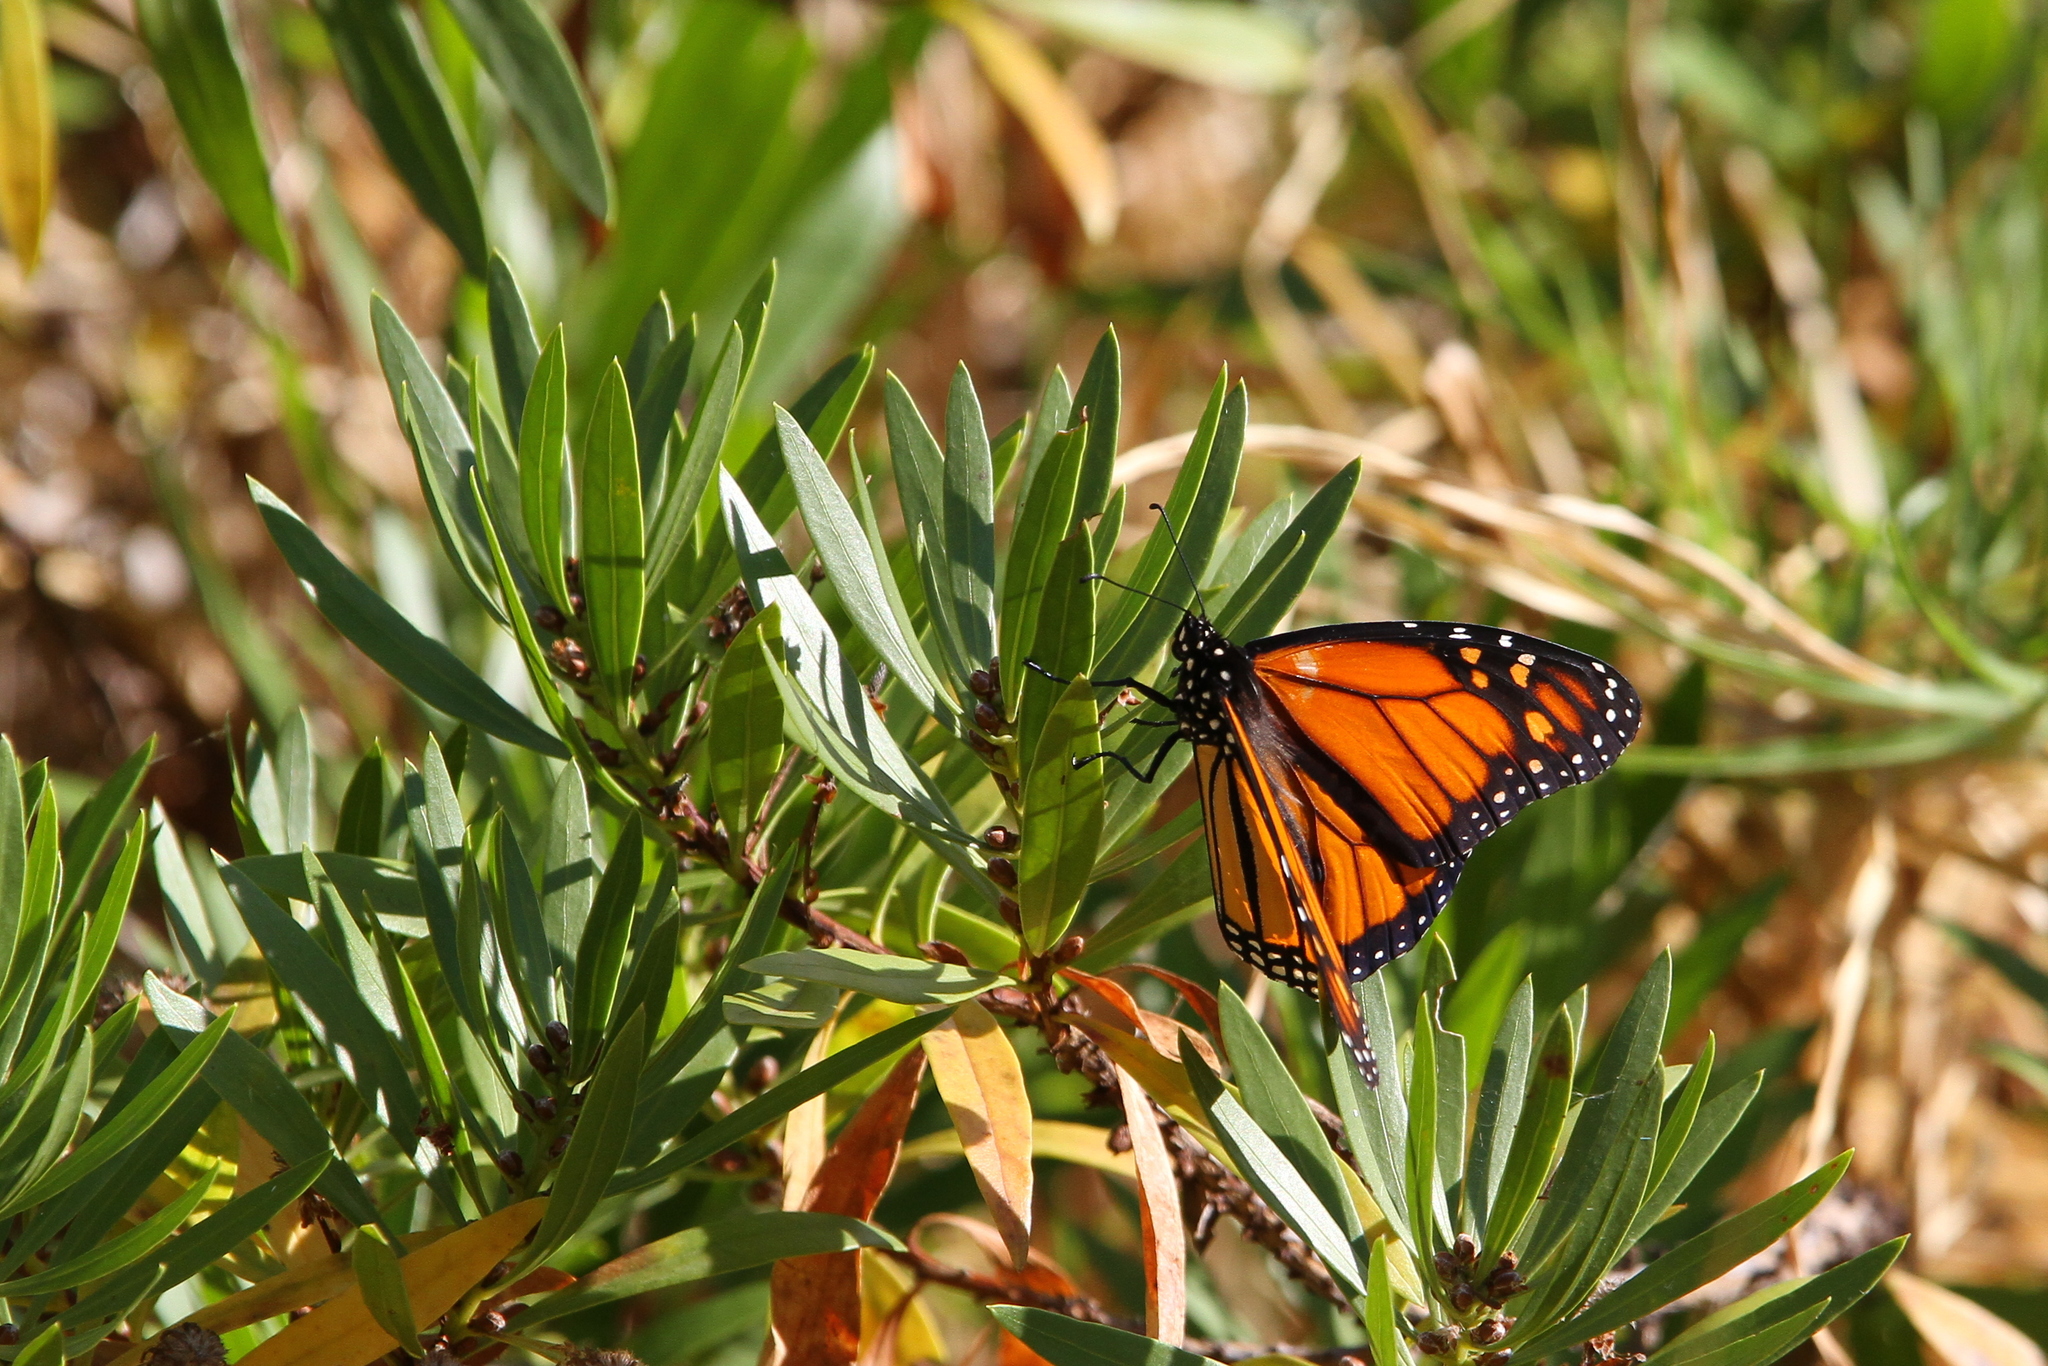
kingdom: Animalia
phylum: Arthropoda
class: Insecta
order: Lepidoptera
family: Nymphalidae
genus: Danaus
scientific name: Danaus plexippus
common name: Monarch
